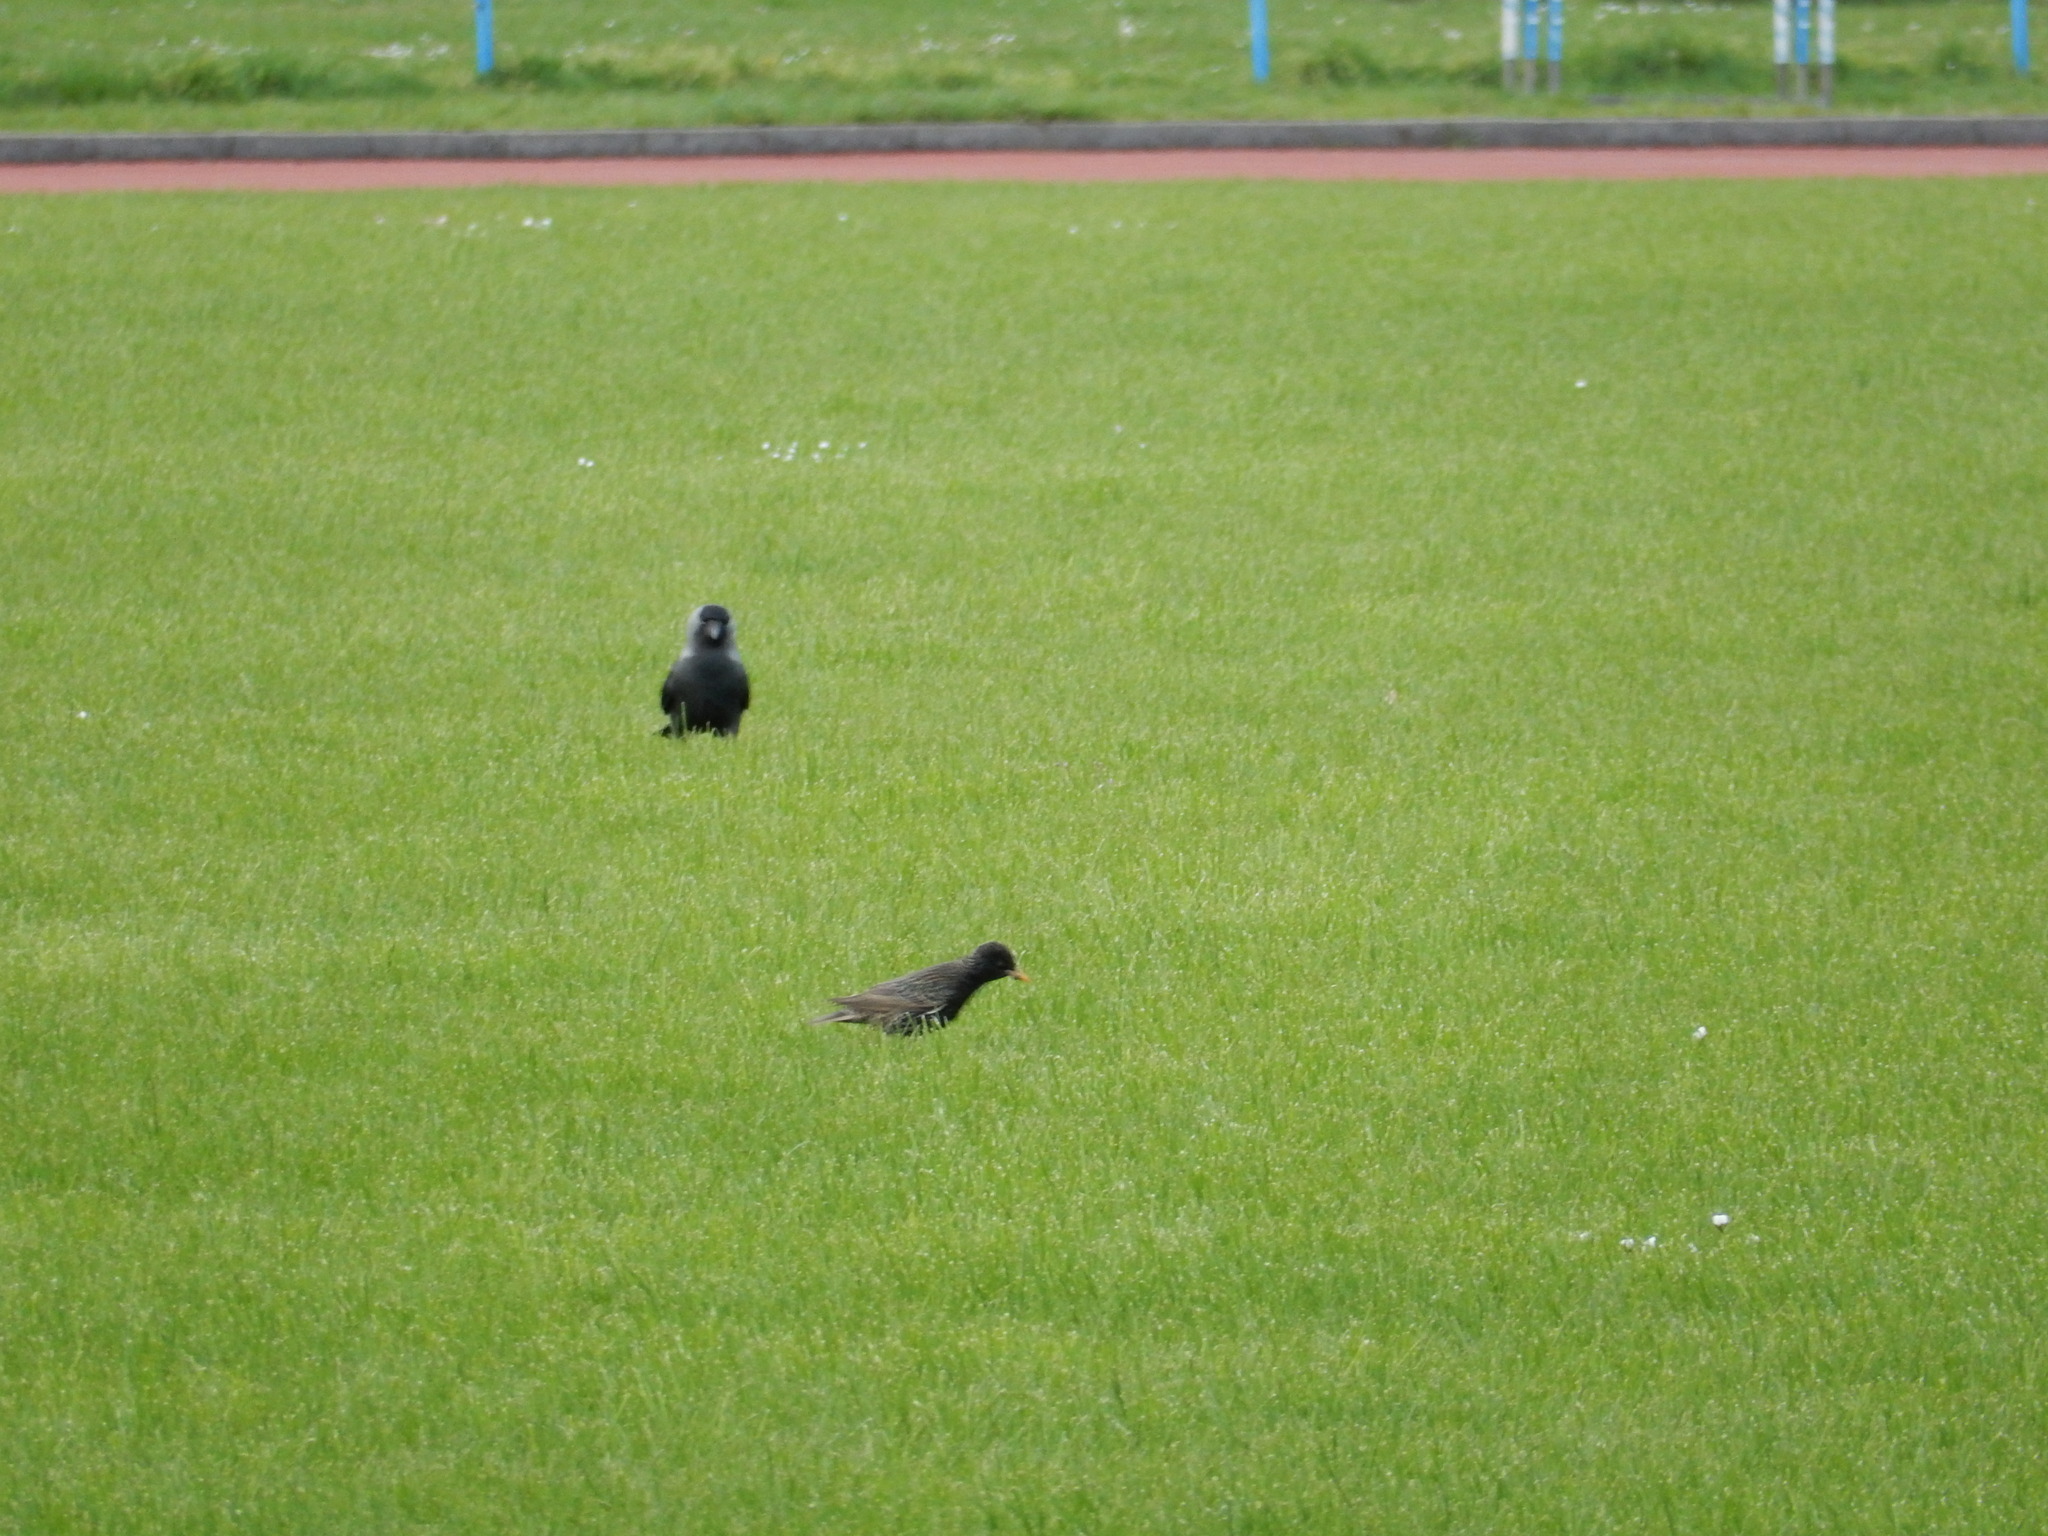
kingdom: Animalia
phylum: Chordata
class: Aves
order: Passeriformes
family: Sturnidae
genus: Sturnus
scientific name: Sturnus vulgaris
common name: Common starling
